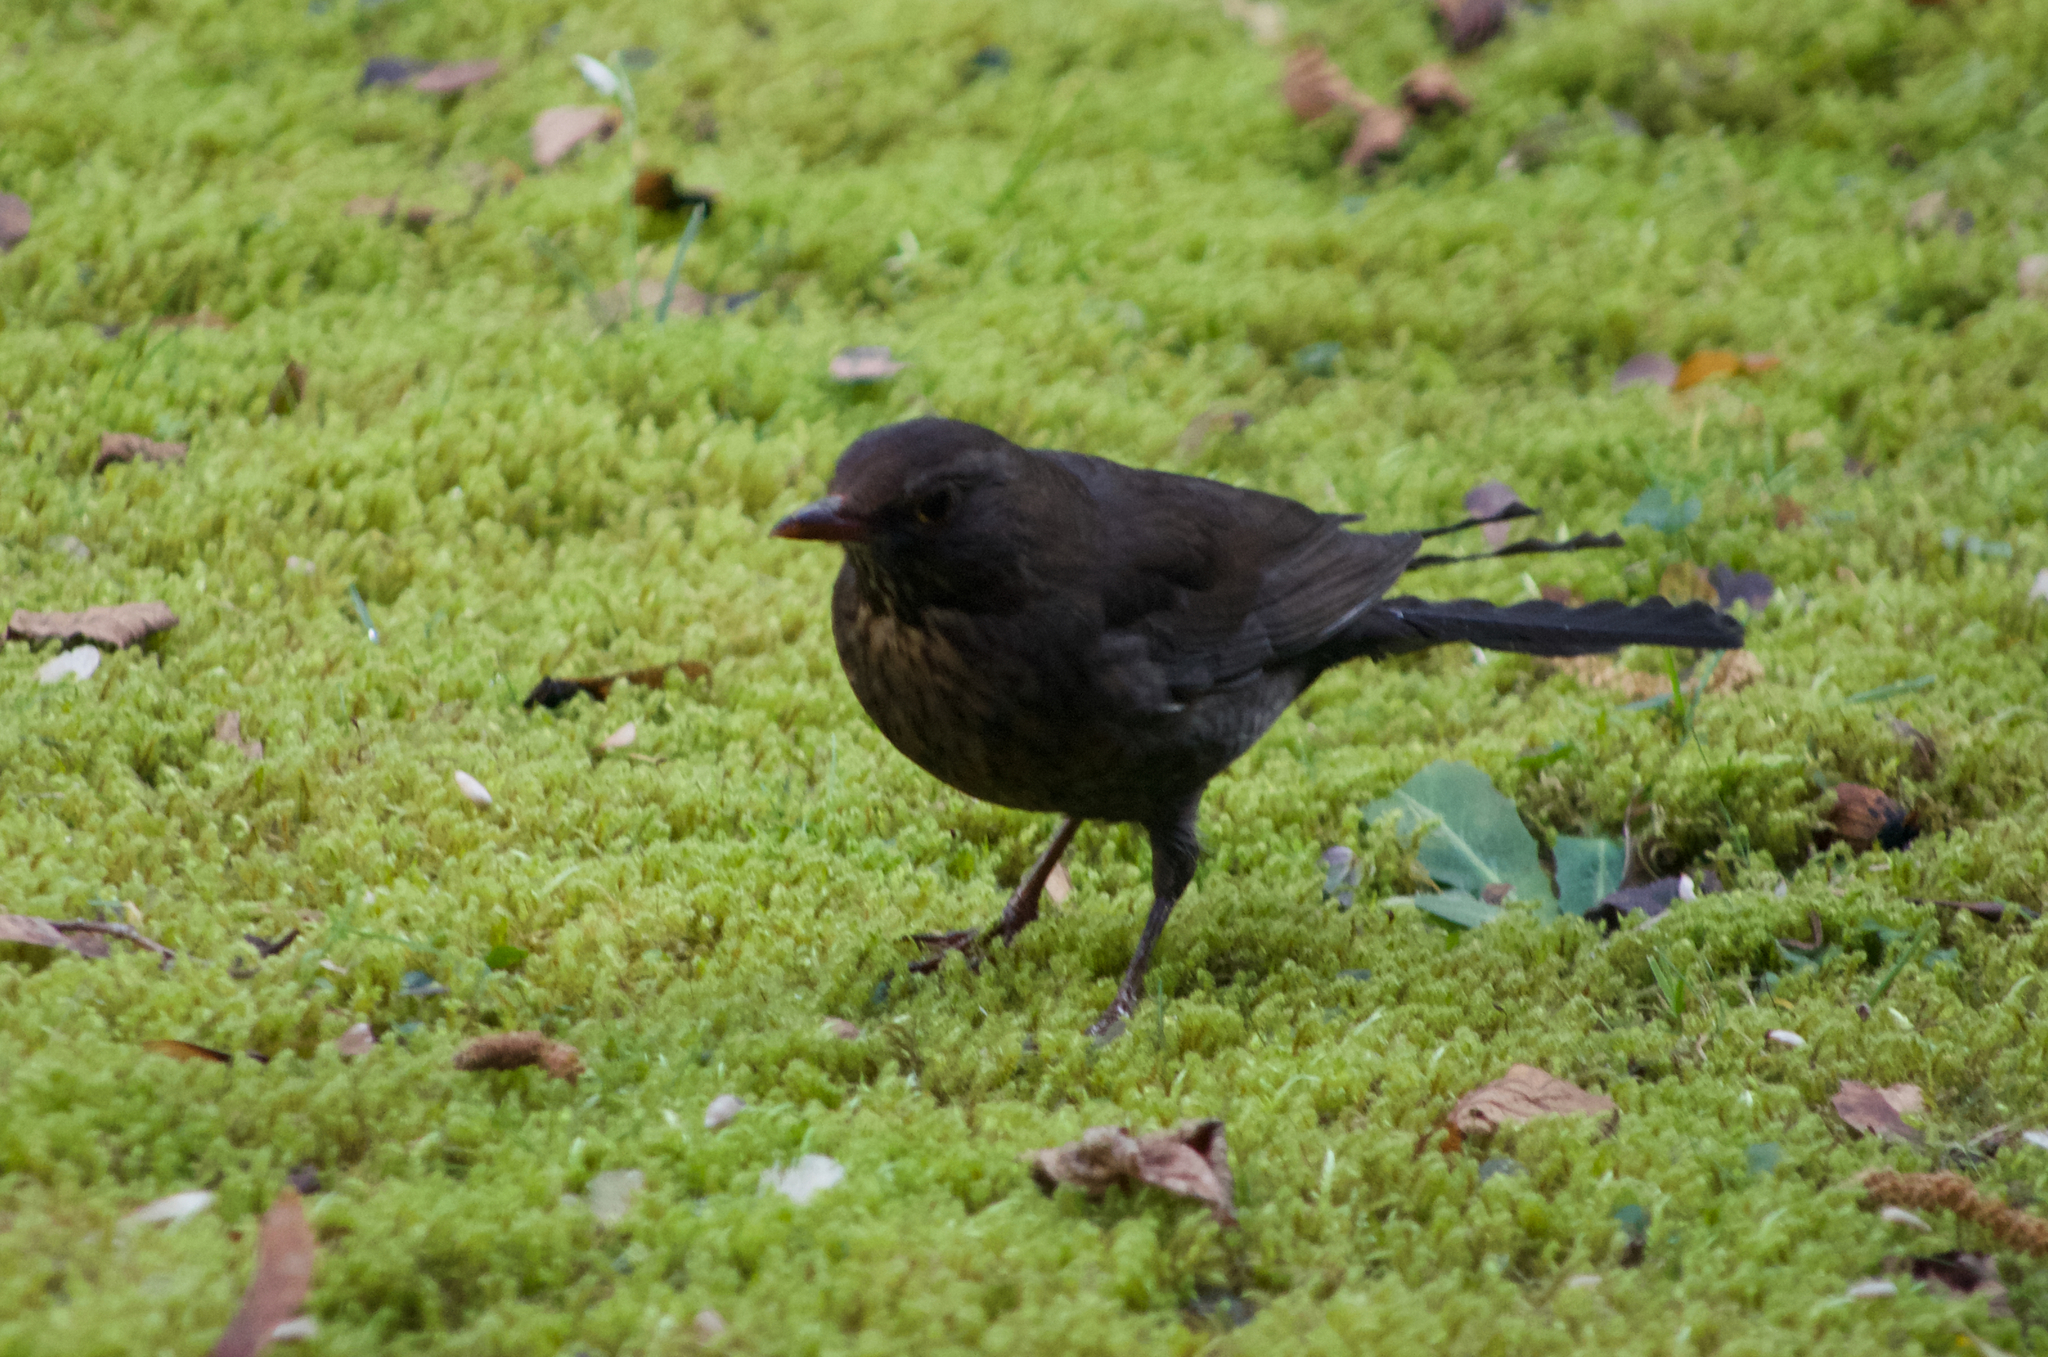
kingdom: Animalia
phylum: Chordata
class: Aves
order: Passeriformes
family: Turdidae
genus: Turdus
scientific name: Turdus merula
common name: Common blackbird
